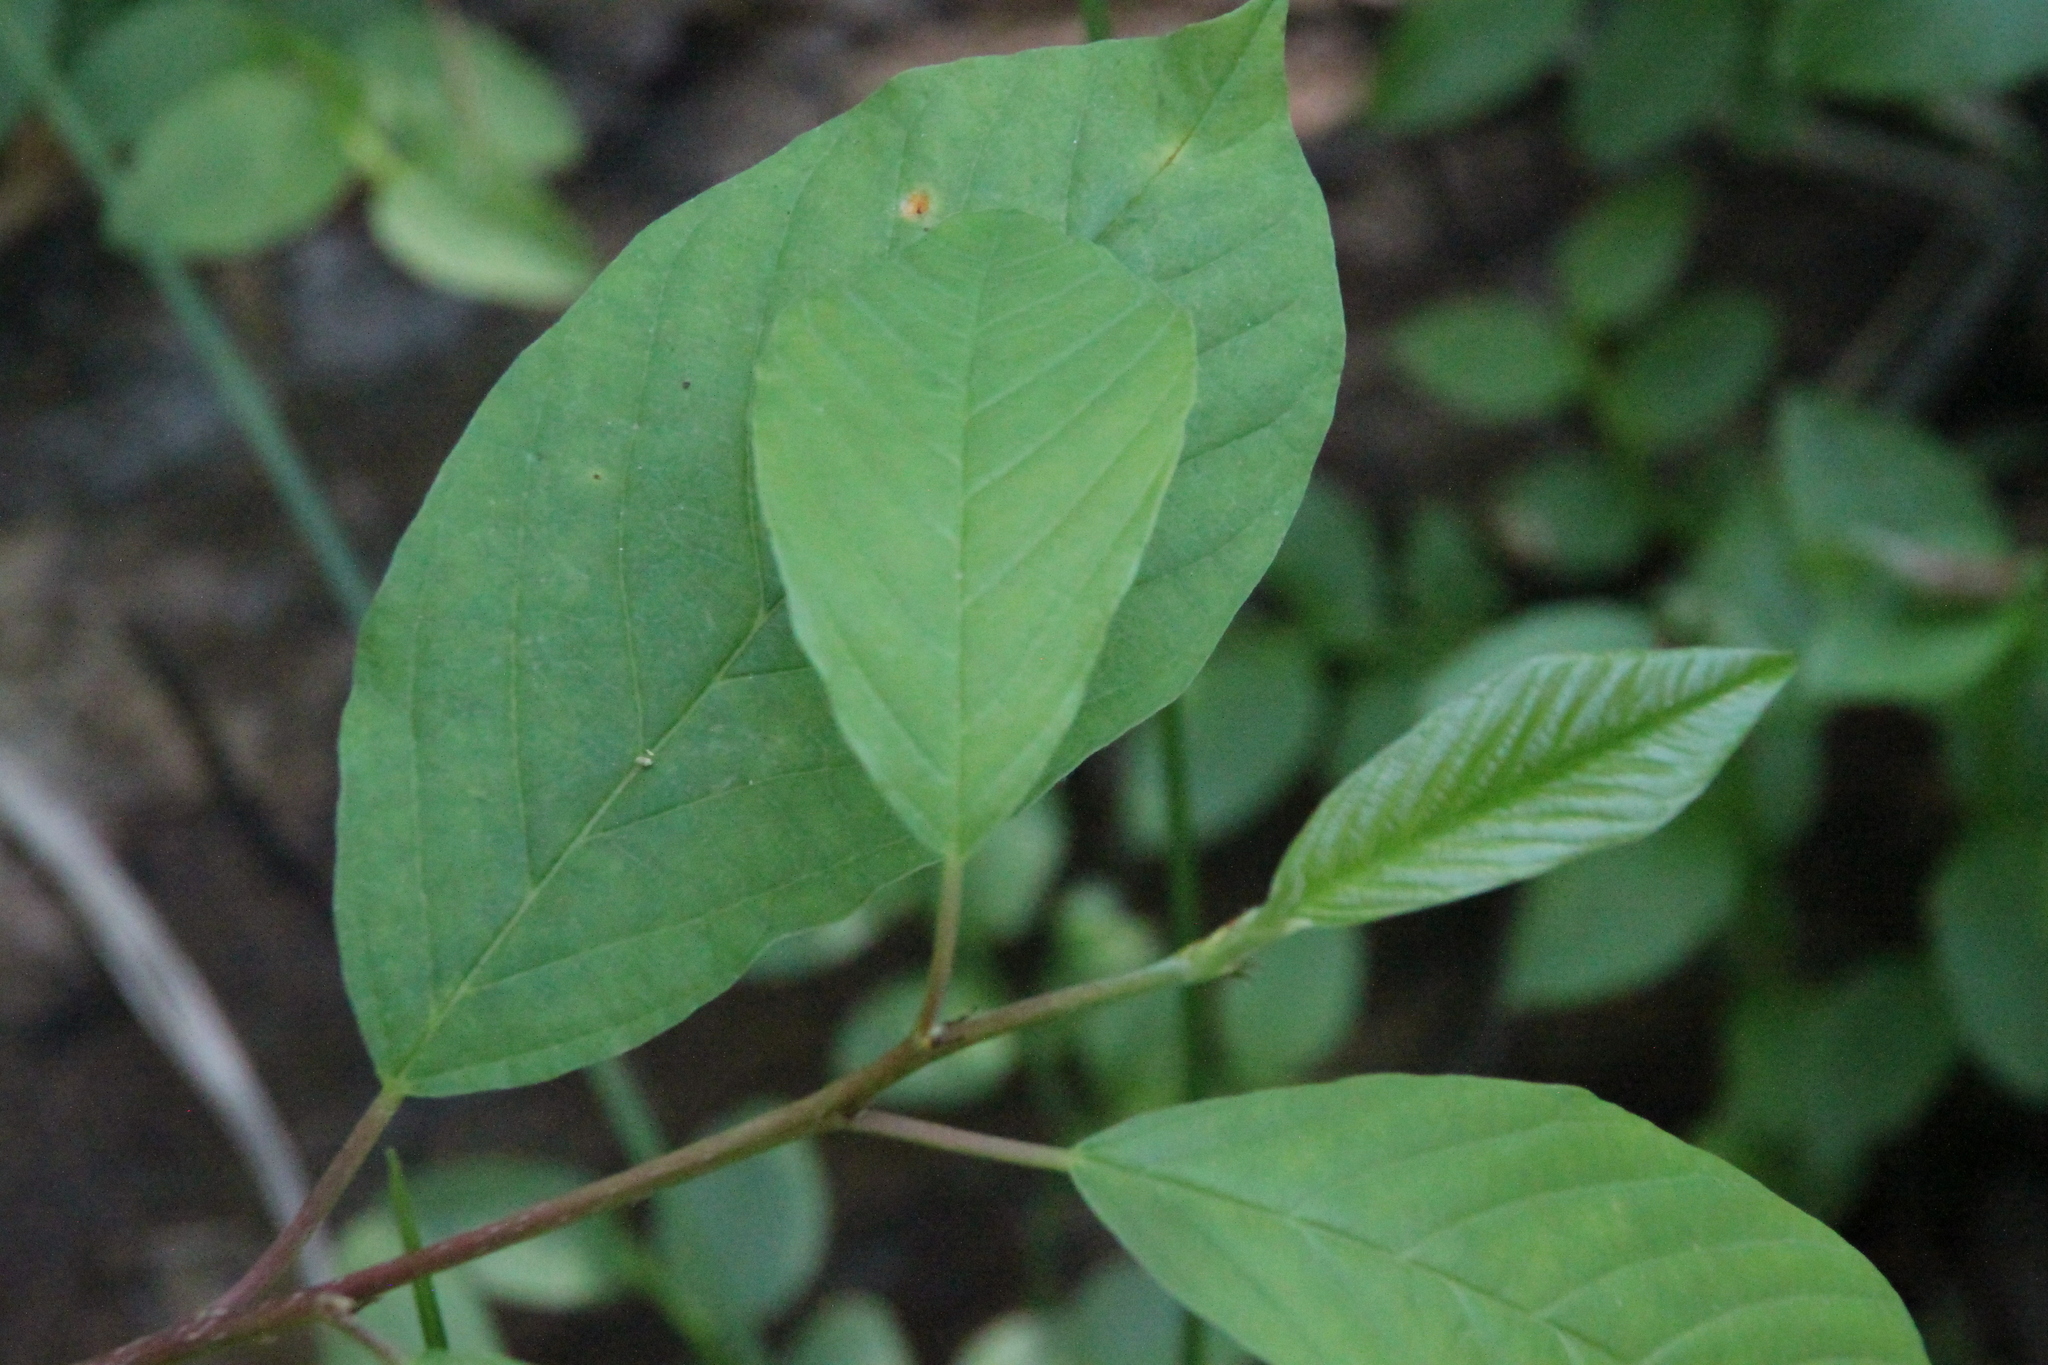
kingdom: Plantae
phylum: Tracheophyta
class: Magnoliopsida
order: Rosales
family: Rhamnaceae
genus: Frangula
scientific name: Frangula alnus
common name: Alder buckthorn
